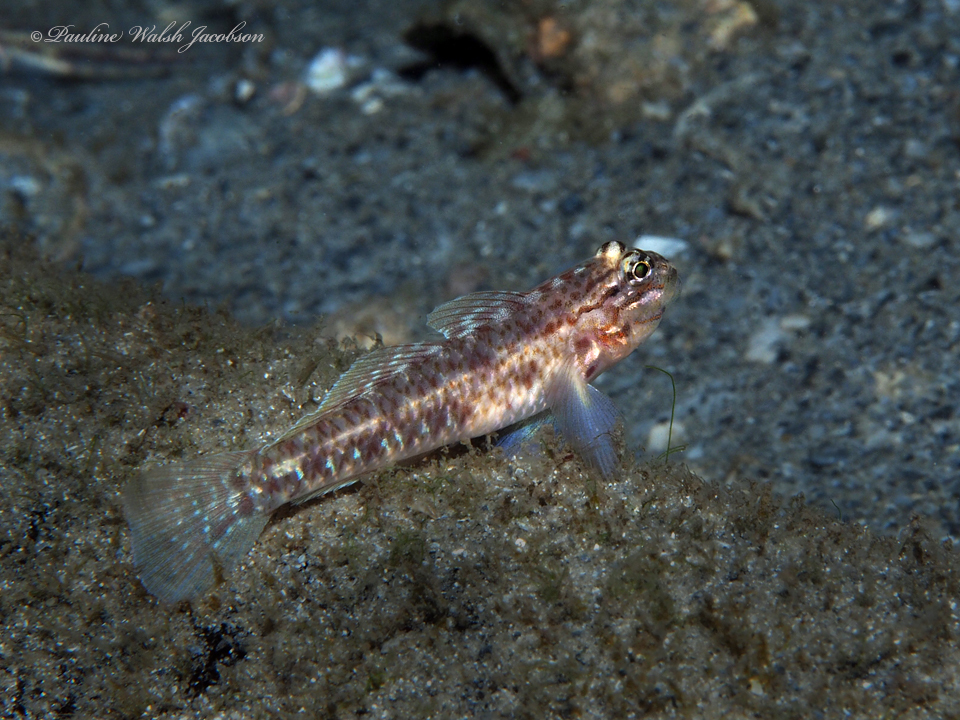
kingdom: Animalia
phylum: Chordata
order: Perciformes
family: Gobiidae
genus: Coryphopterus
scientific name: Coryphopterus dicrus
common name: Colon goby
